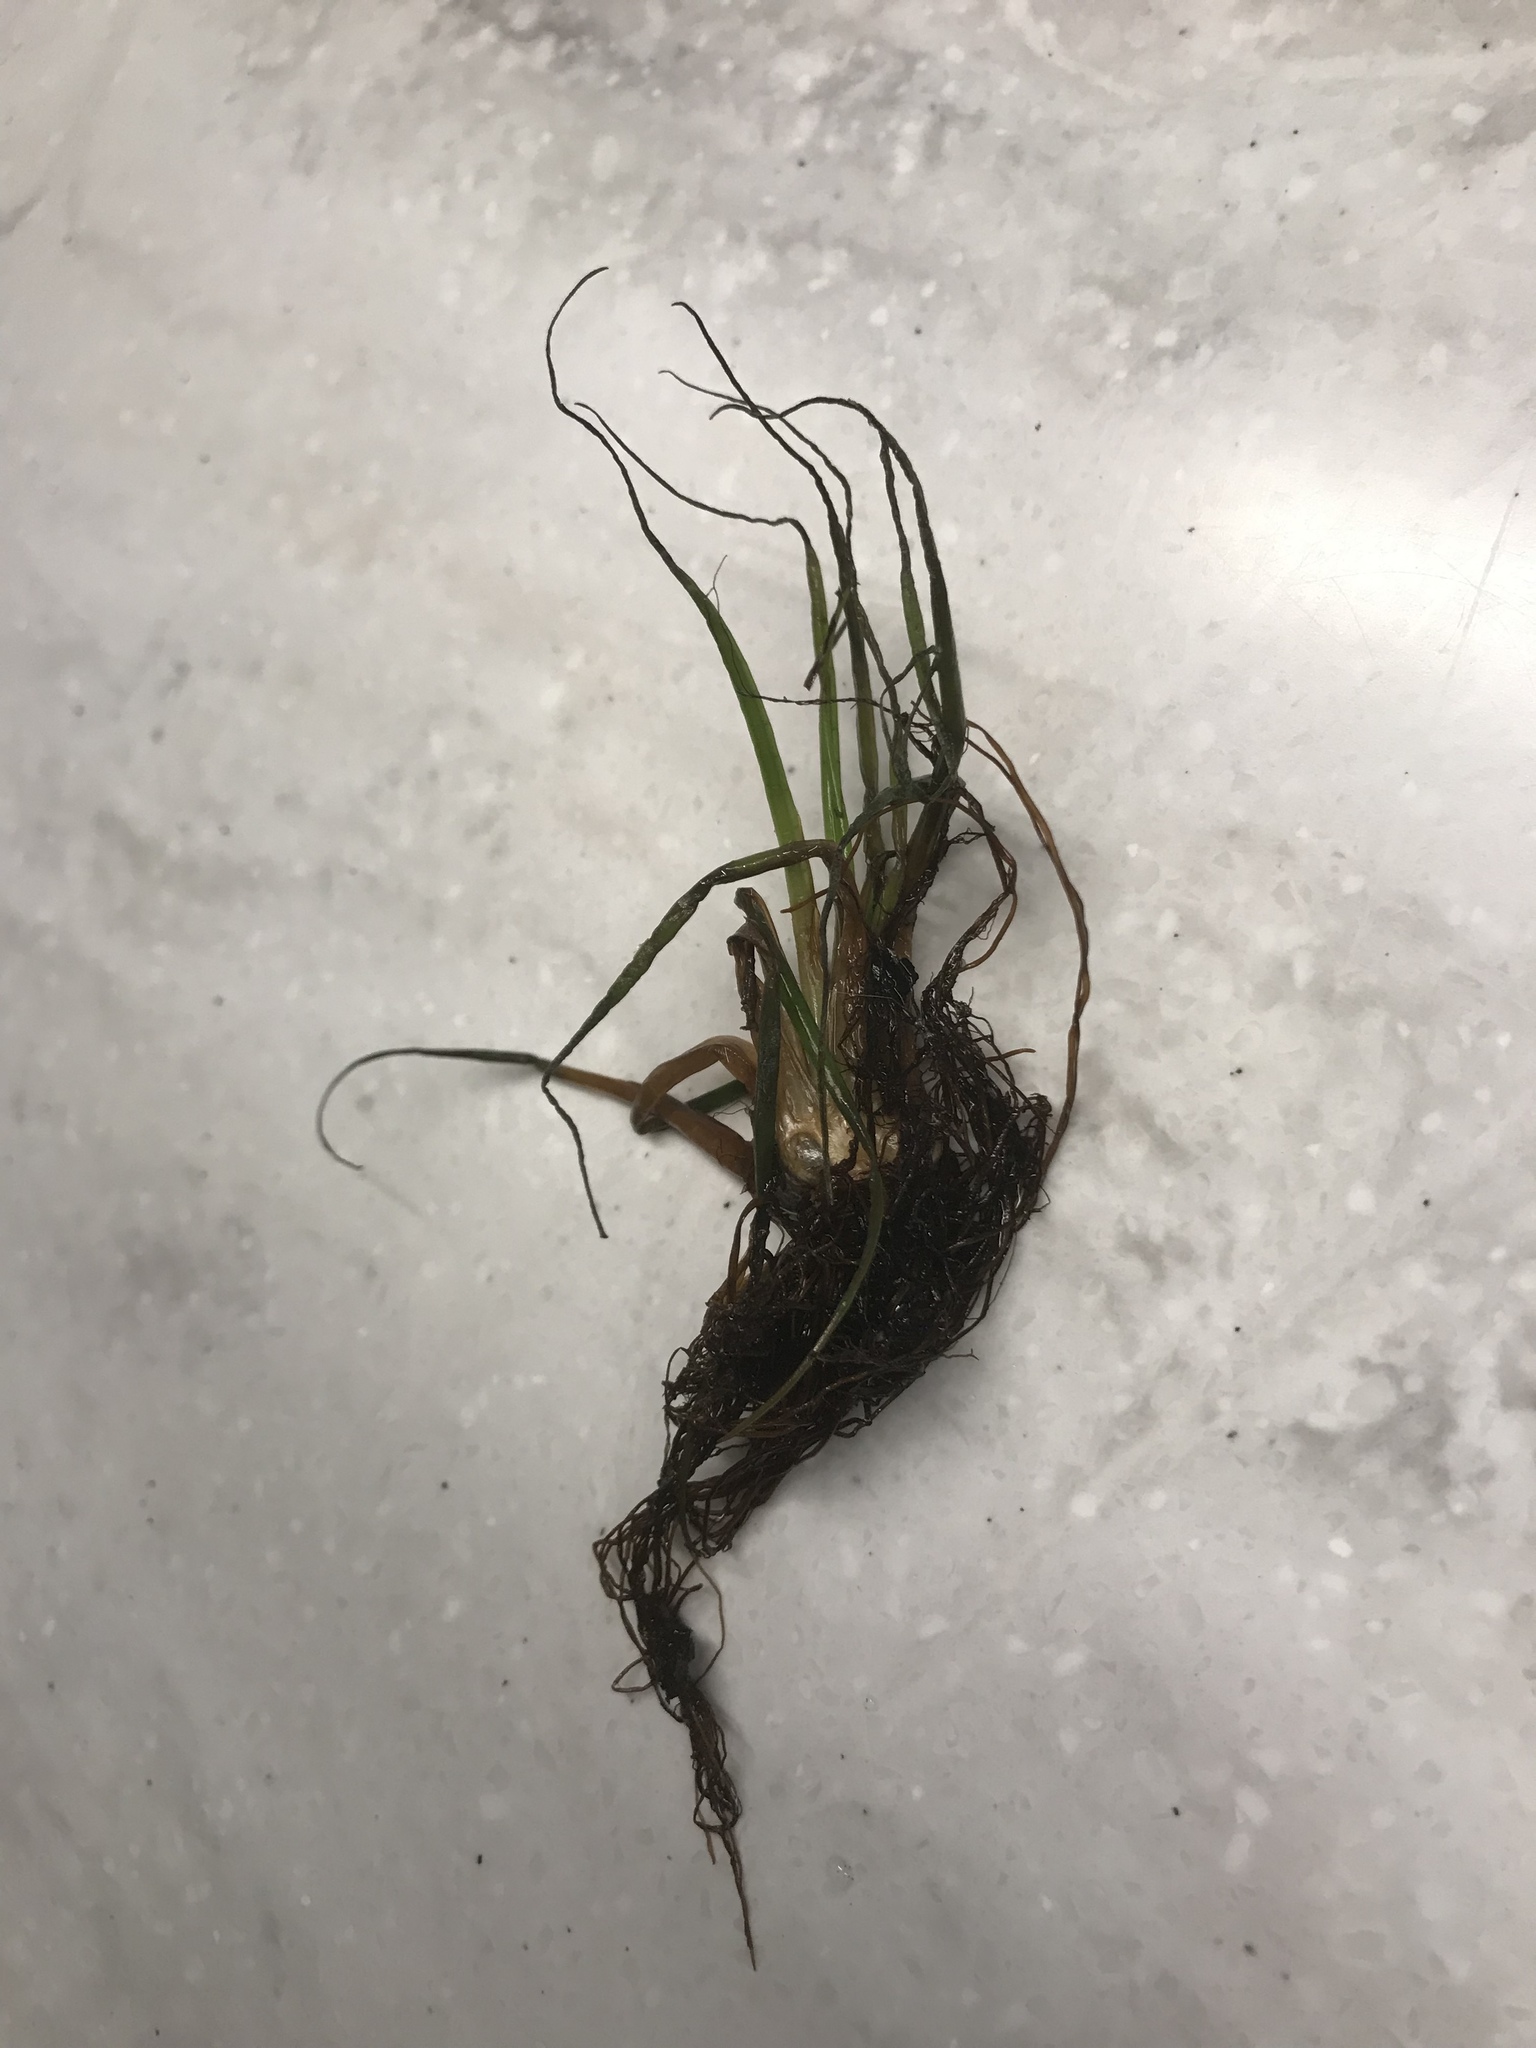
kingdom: Plantae
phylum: Tracheophyta
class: Lycopodiopsida
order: Isoetales
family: Isoetaceae
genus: Isoetes
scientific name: Isoetes alpina
